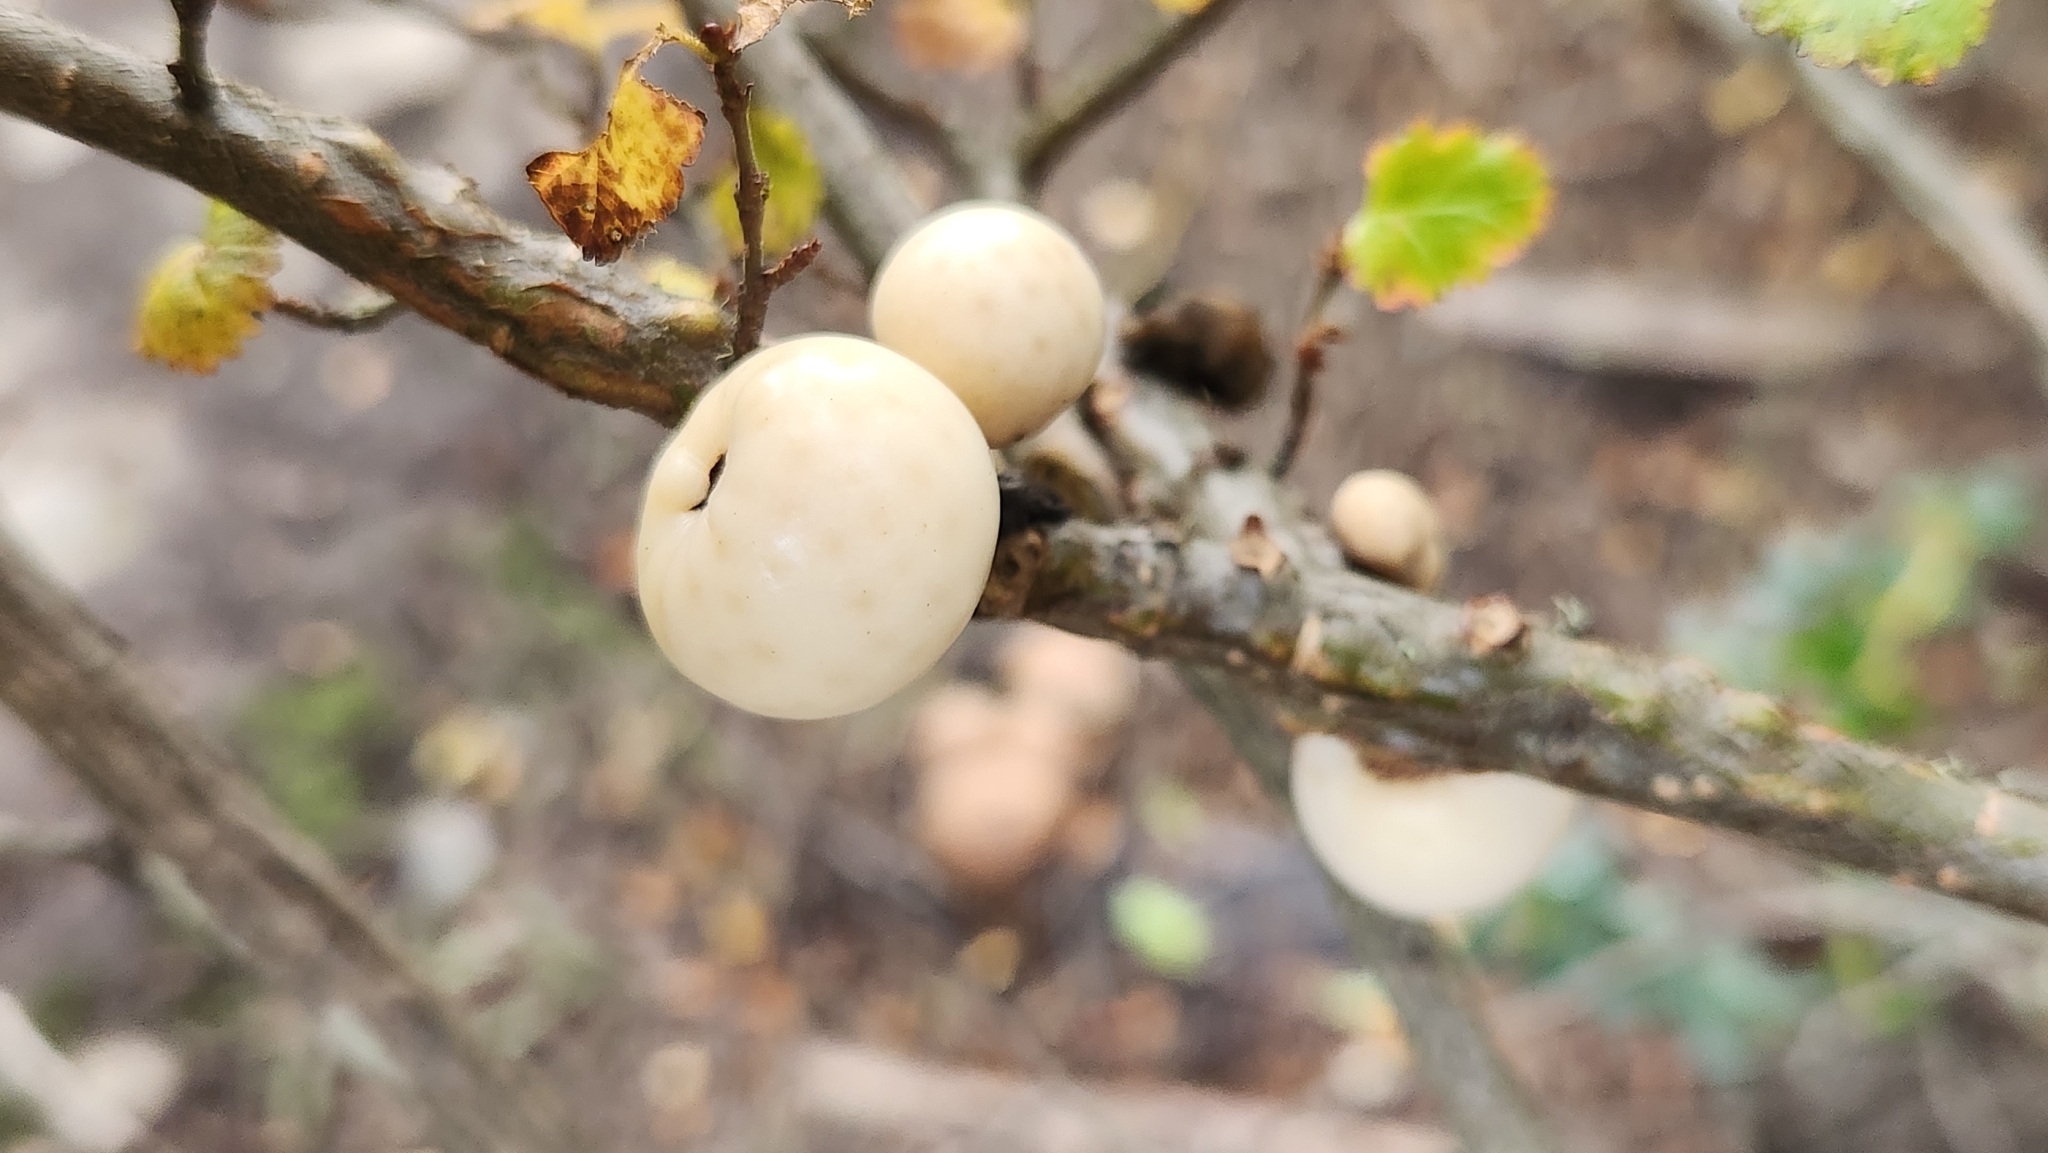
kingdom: Fungi
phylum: Ascomycota
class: Leotiomycetes
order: Cyttariales
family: Cyttariaceae
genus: Cyttaria
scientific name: Cyttaria darwinii
